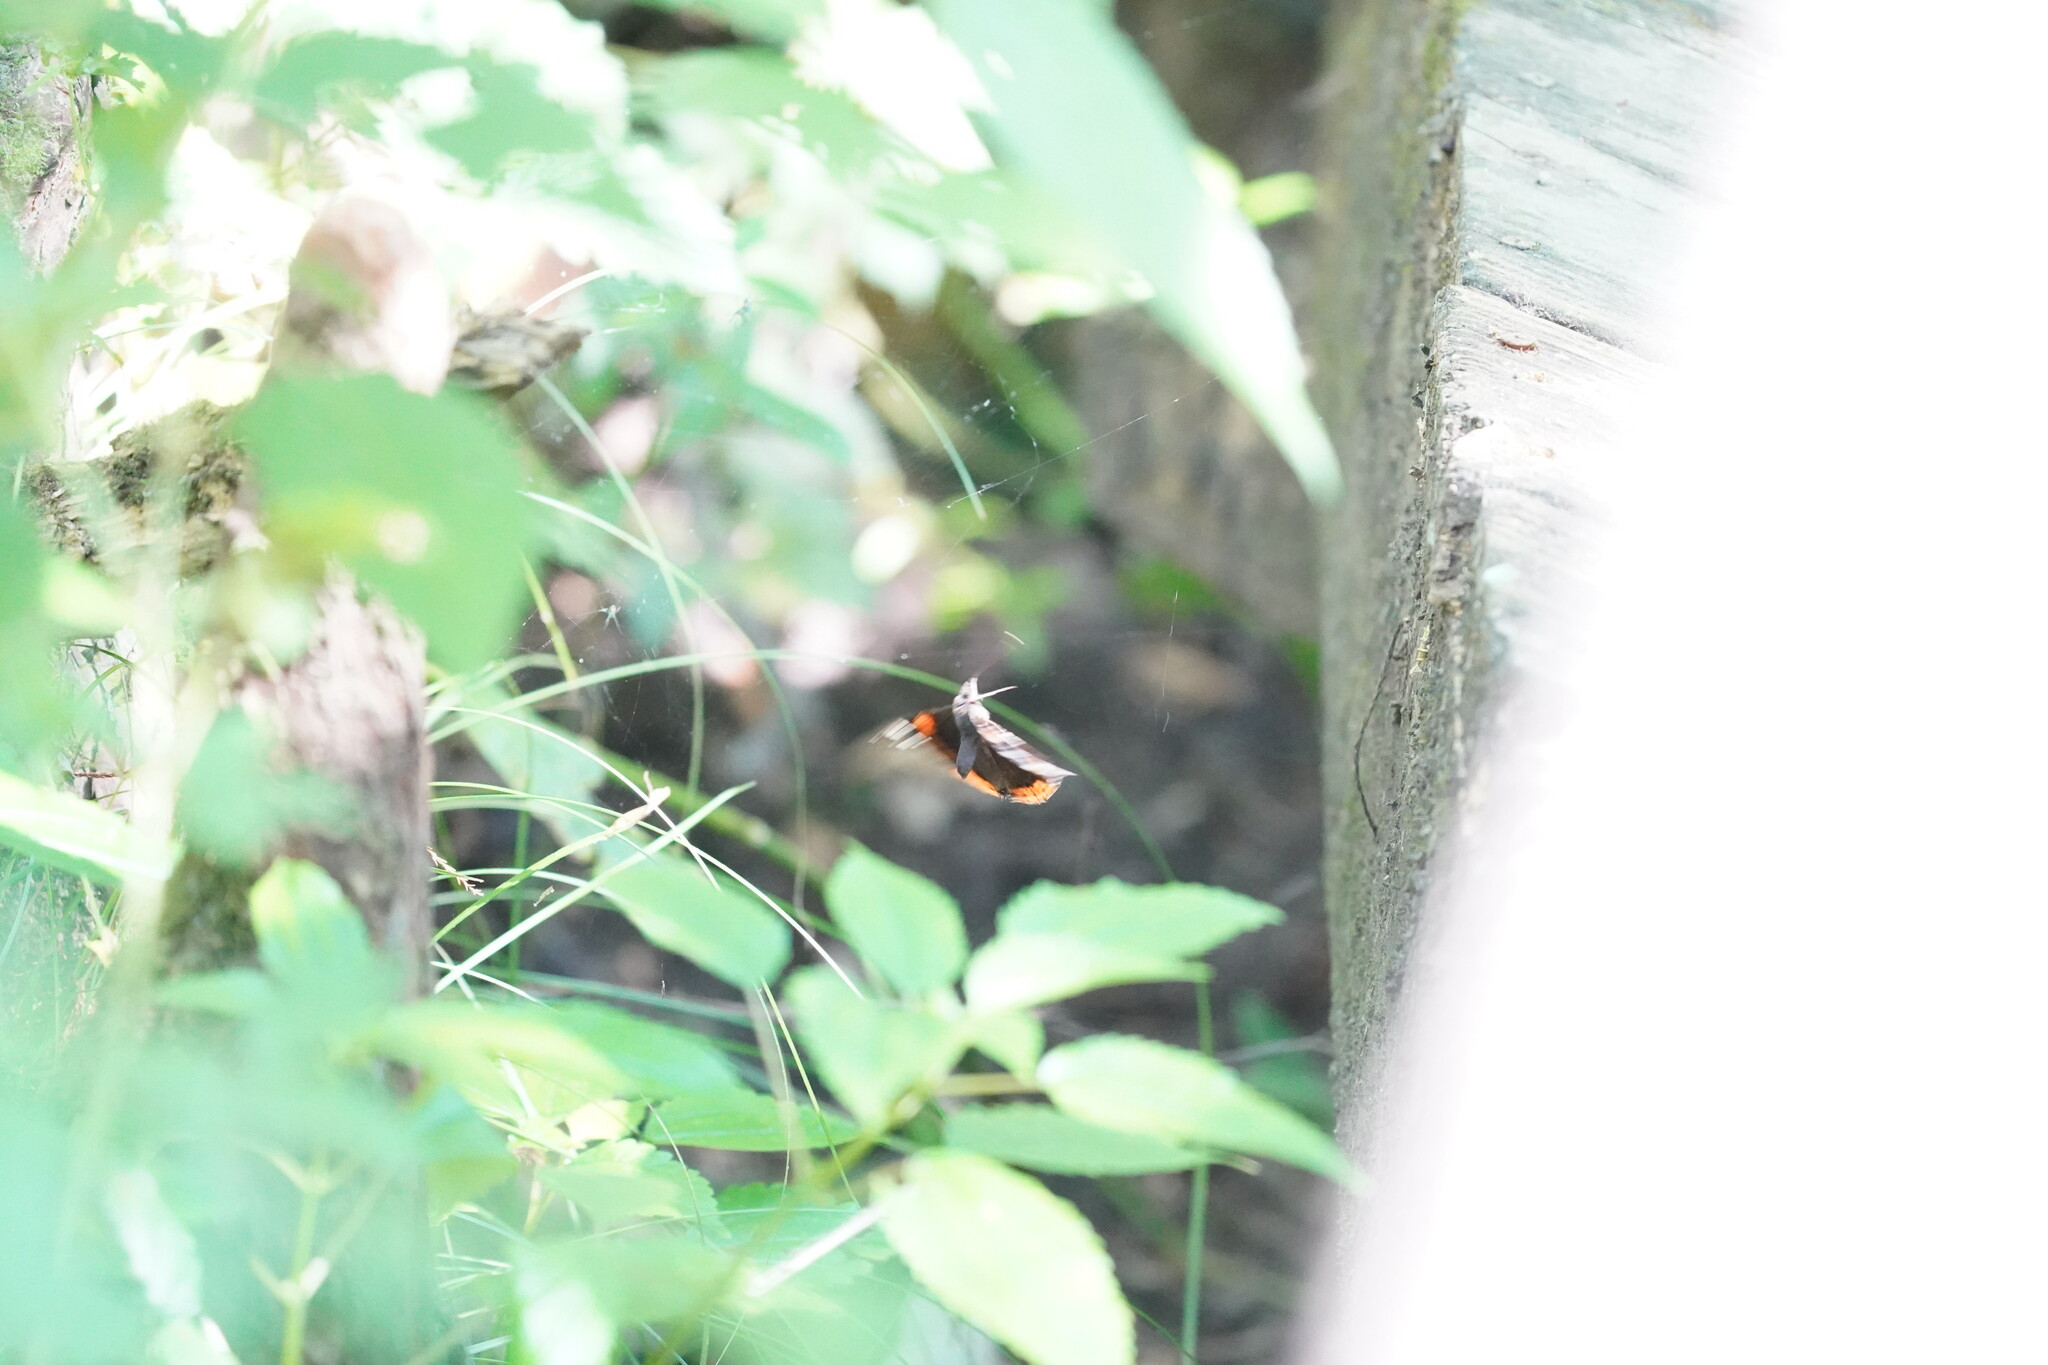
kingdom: Animalia
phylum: Arthropoda
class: Insecta
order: Lepidoptera
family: Nymphalidae
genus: Vanessa
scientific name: Vanessa atalanta
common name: Red admiral
